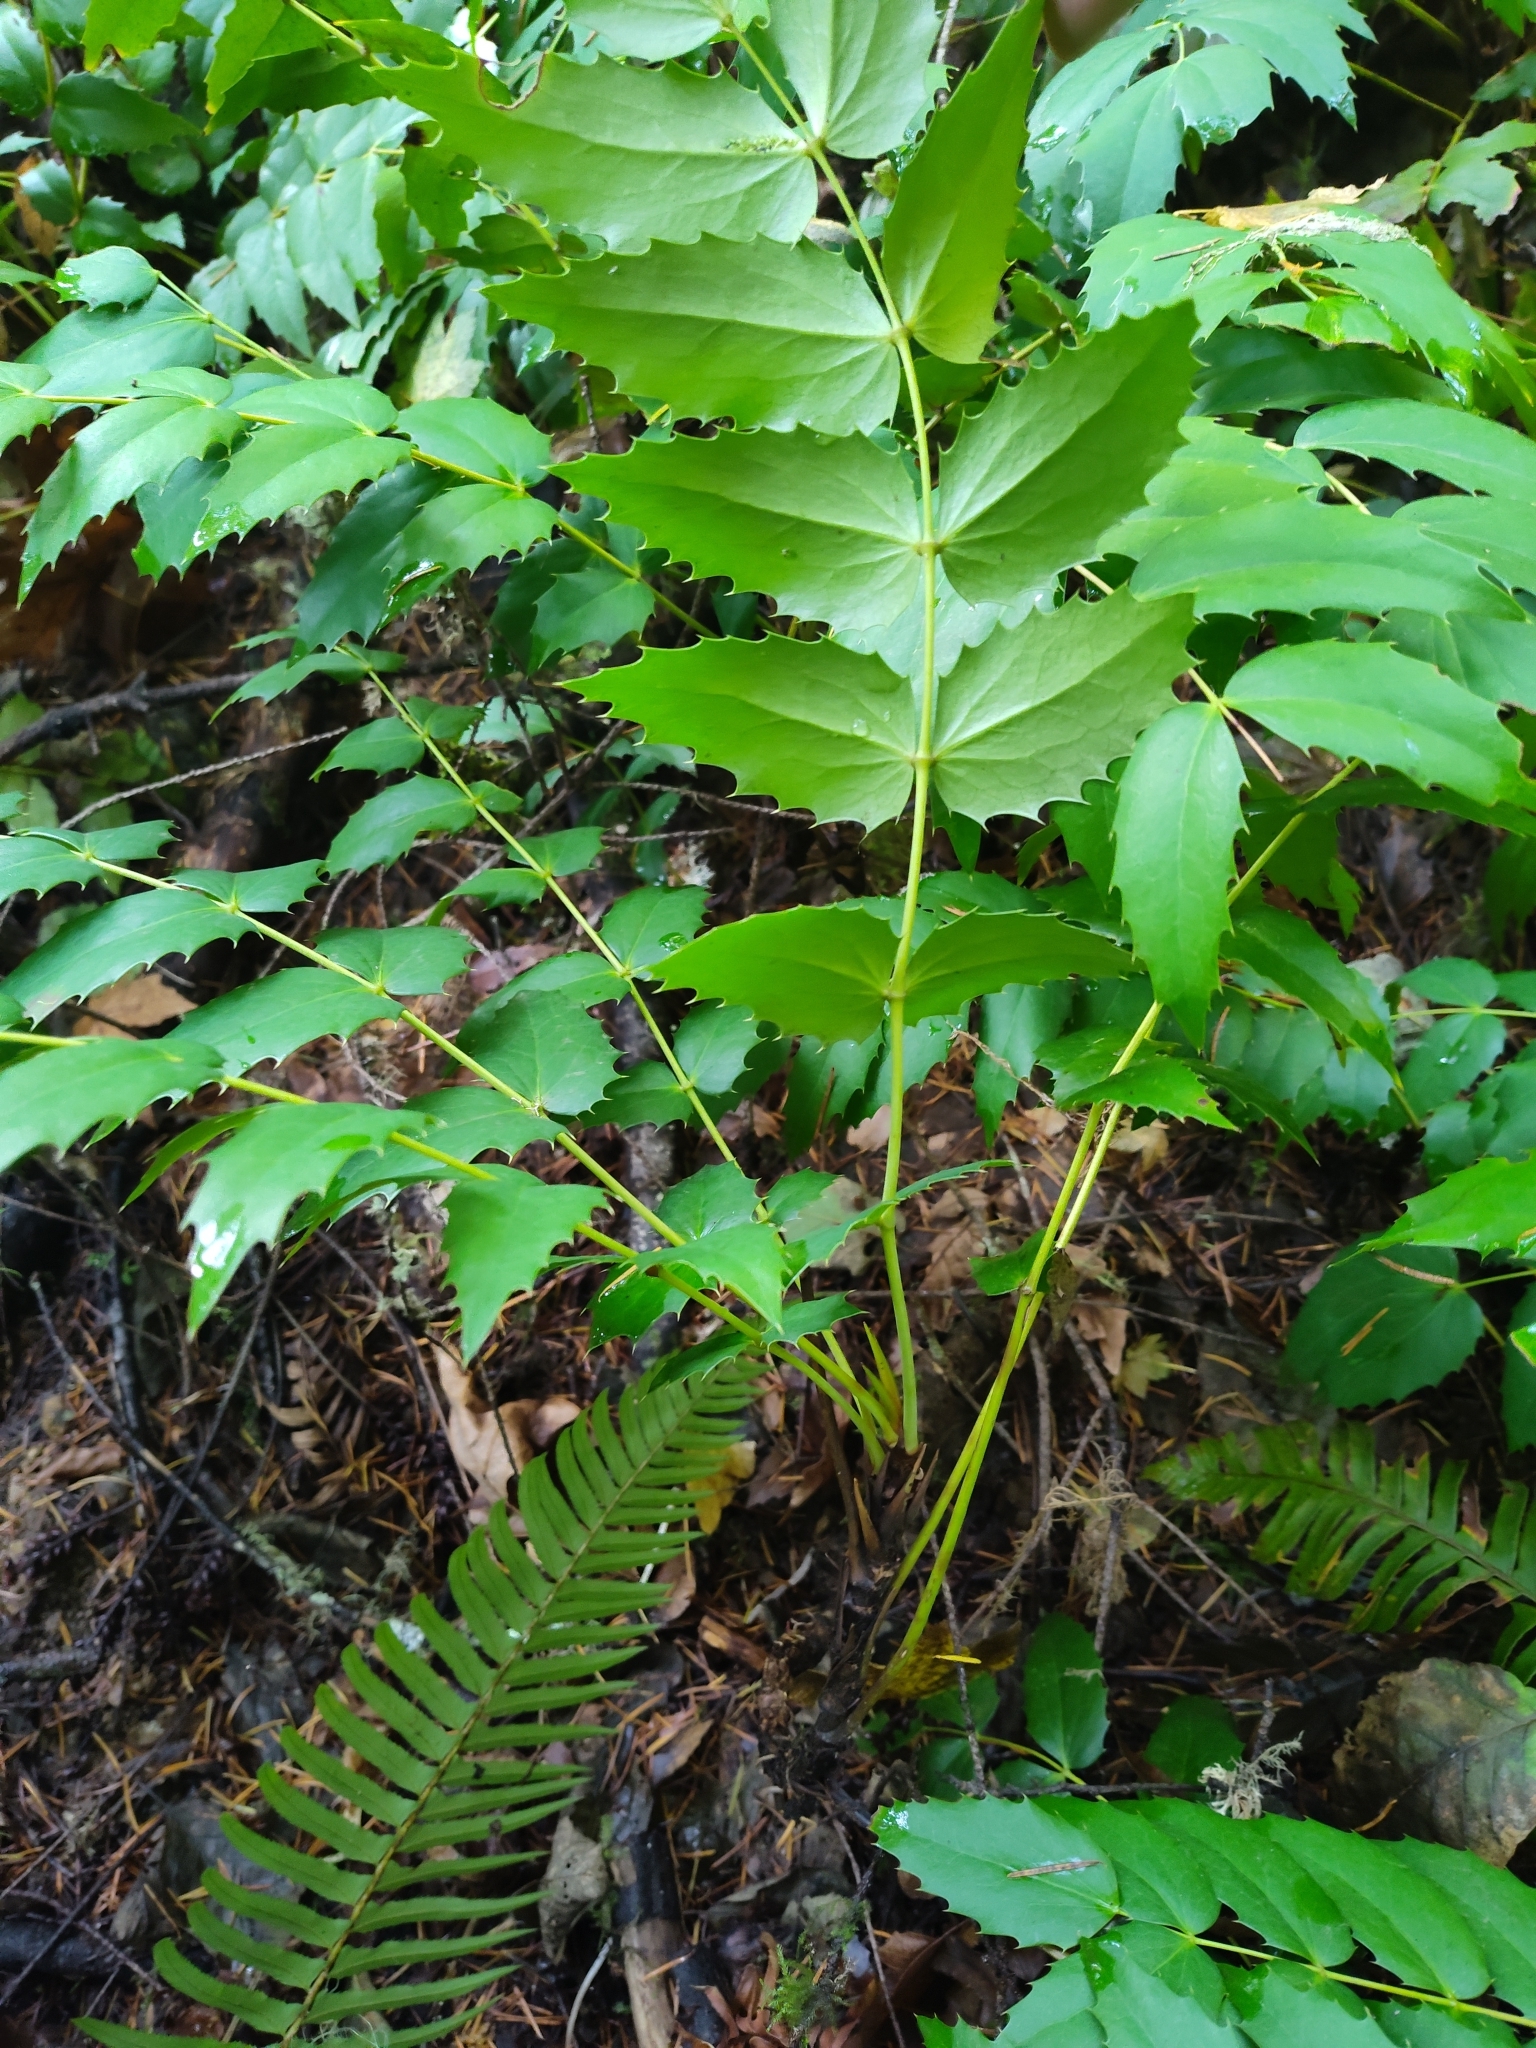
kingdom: Plantae
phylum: Tracheophyta
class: Magnoliopsida
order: Ranunculales
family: Berberidaceae
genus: Mahonia
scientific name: Mahonia nervosa
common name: Cascade oregon-grape
